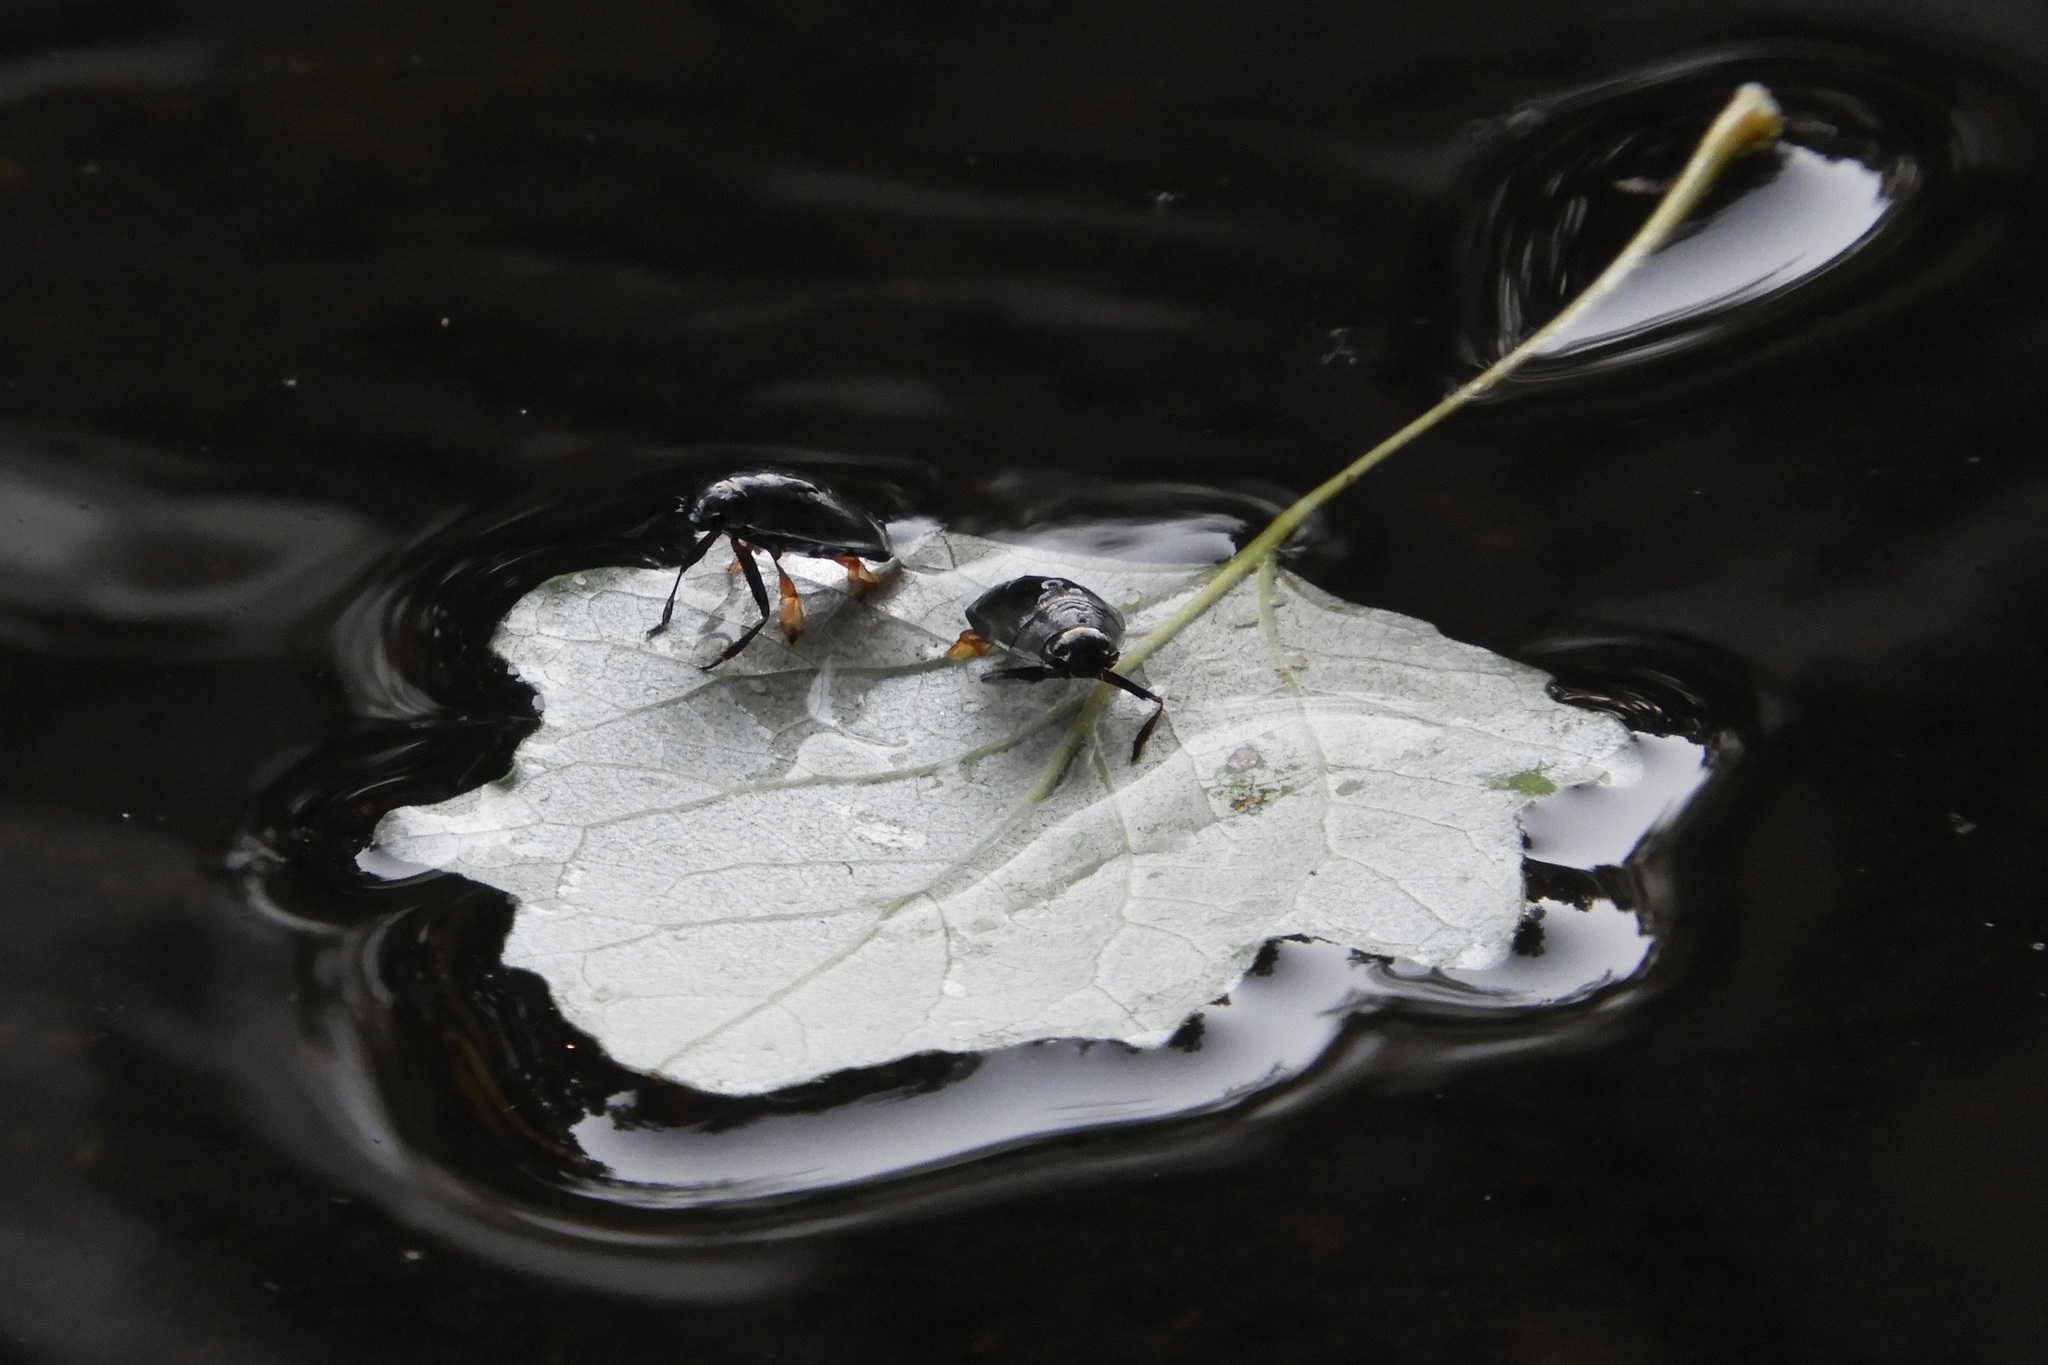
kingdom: Animalia
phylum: Arthropoda
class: Insecta
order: Coleoptera
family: Gyrinidae
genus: Dineutus
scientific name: Dineutus
